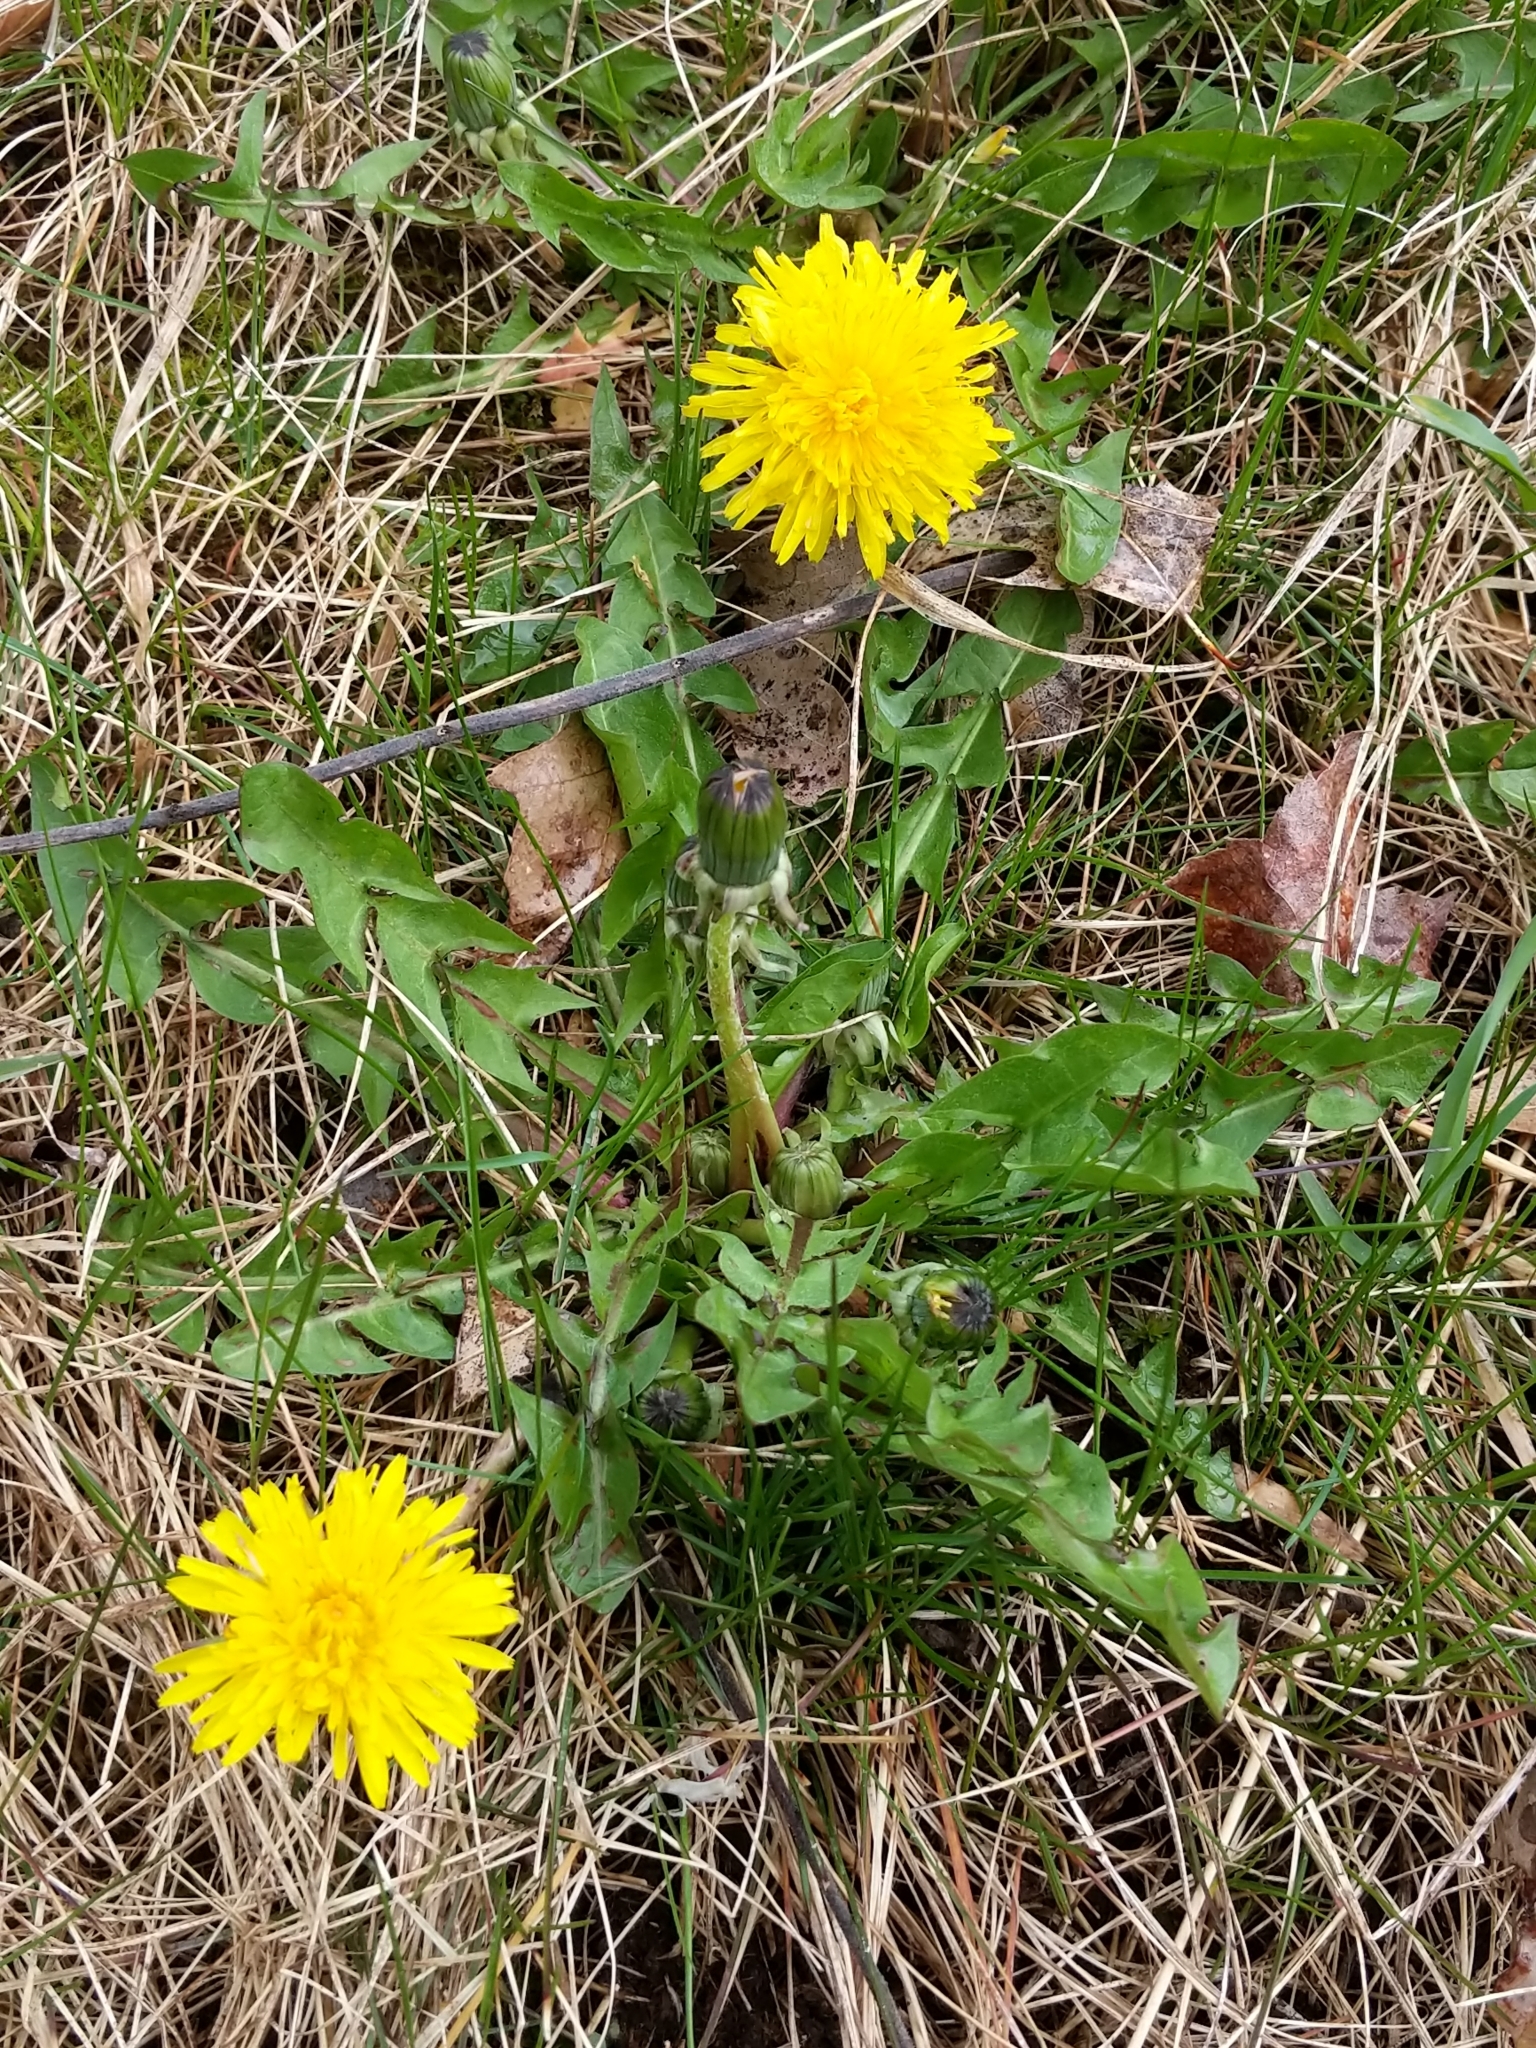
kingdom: Plantae
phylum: Tracheophyta
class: Magnoliopsida
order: Asterales
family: Asteraceae
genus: Taraxacum
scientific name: Taraxacum officinale
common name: Common dandelion
